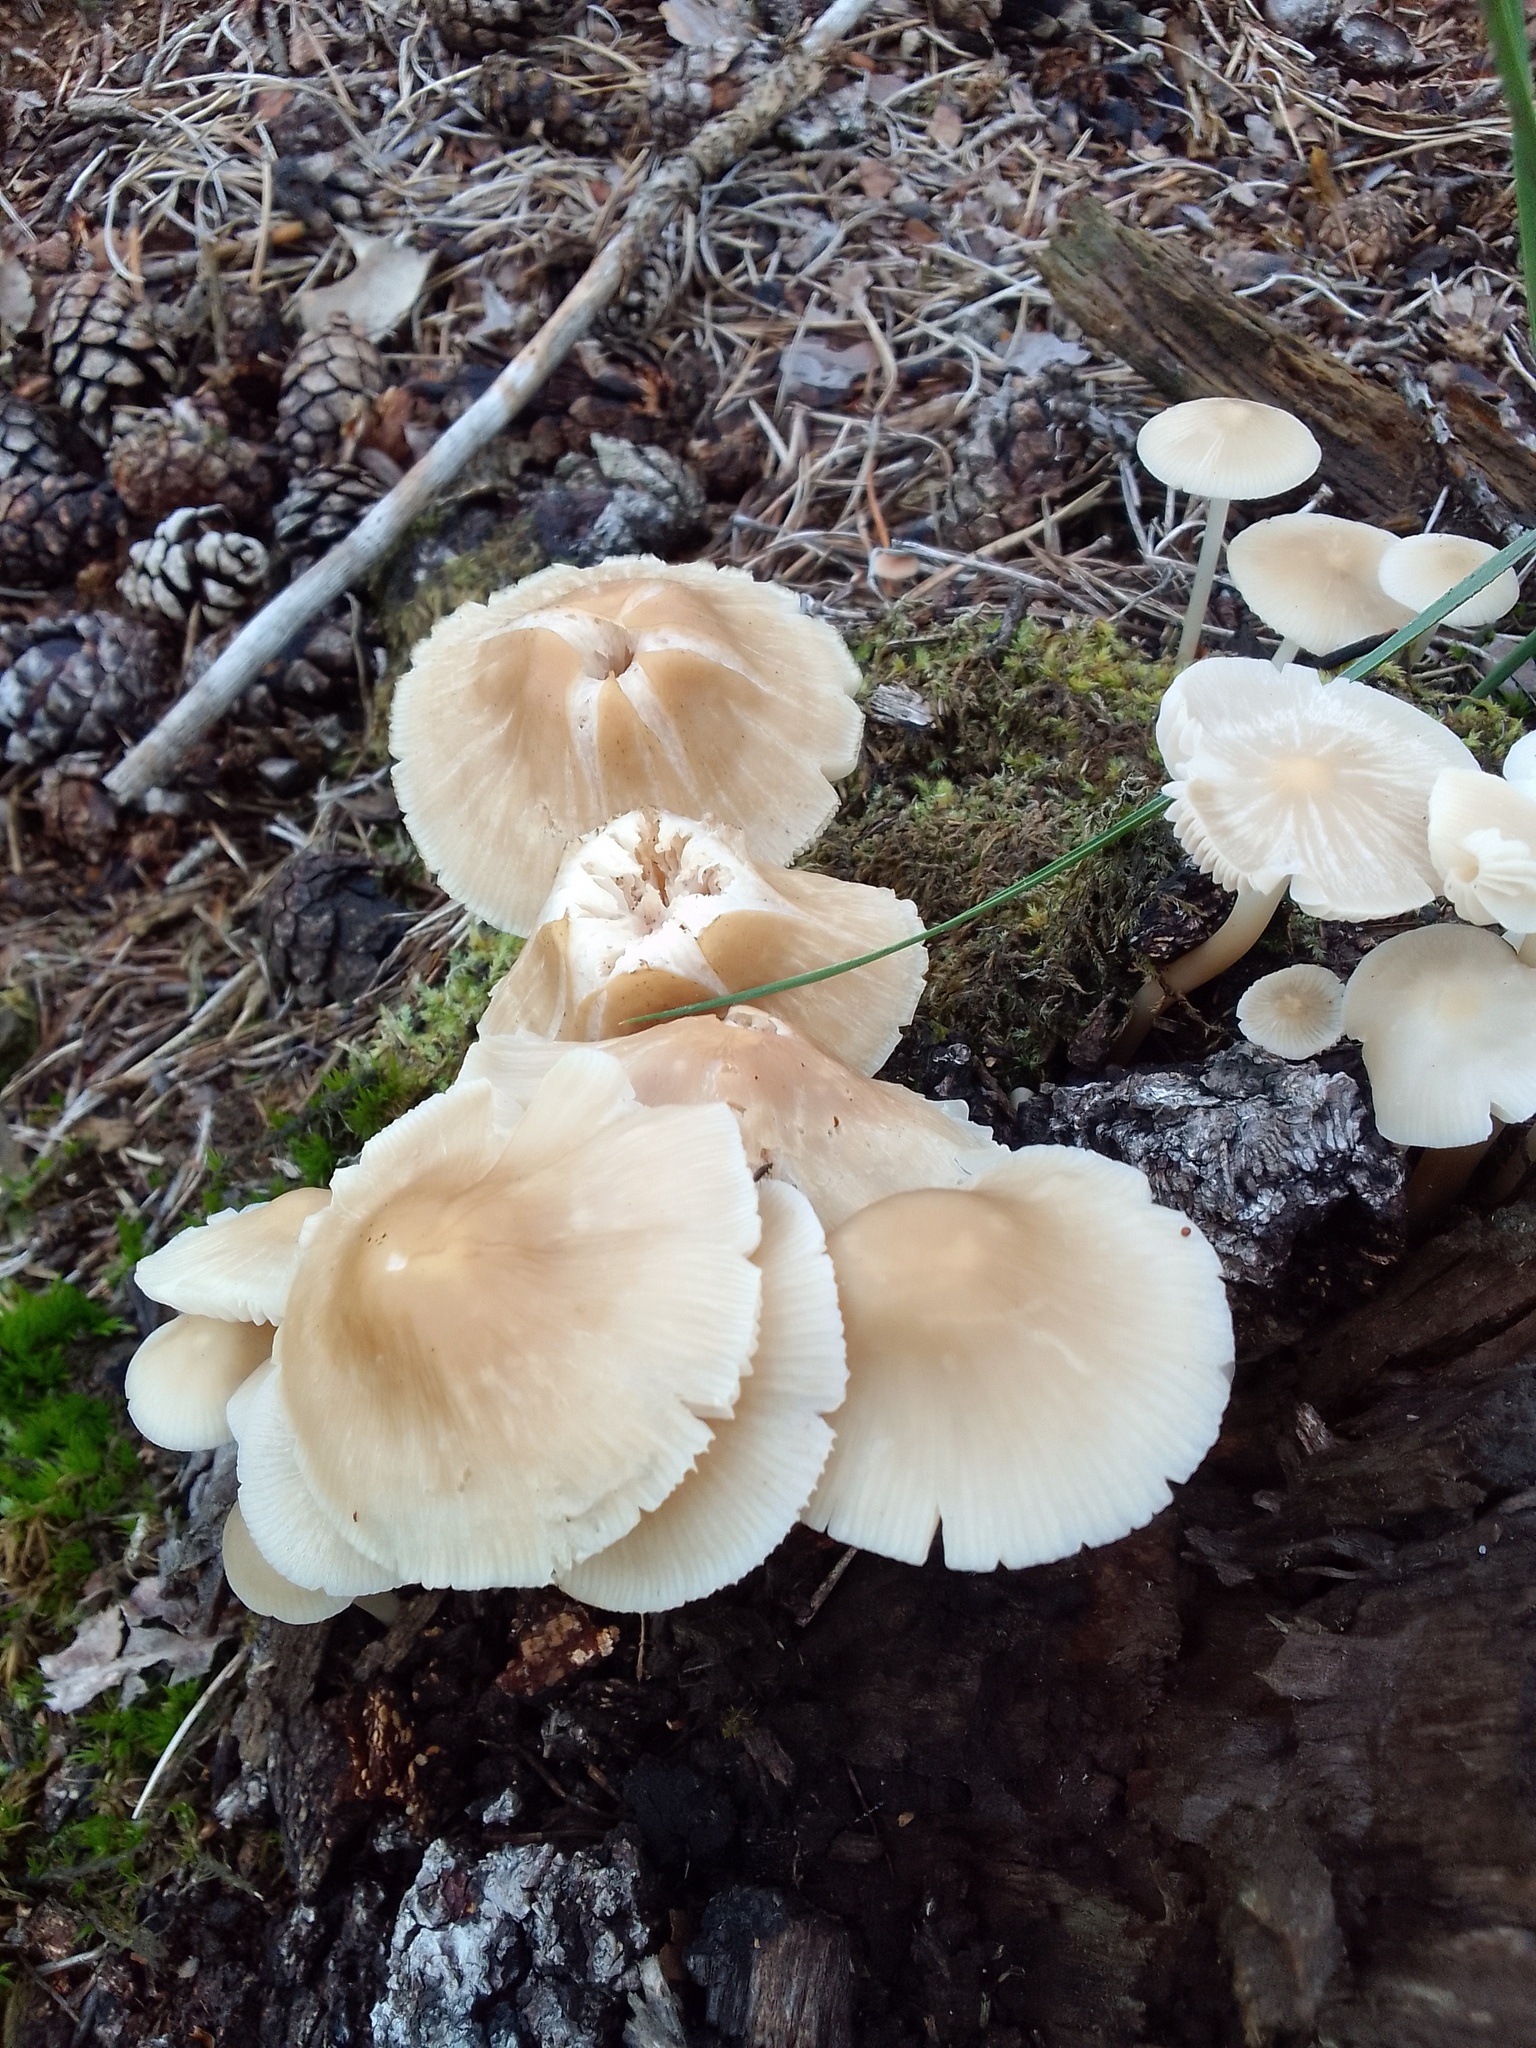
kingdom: Fungi
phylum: Basidiomycota
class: Agaricomycetes
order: Agaricales
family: Omphalotaceae
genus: Collybiopsis
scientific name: Collybiopsis confluens
